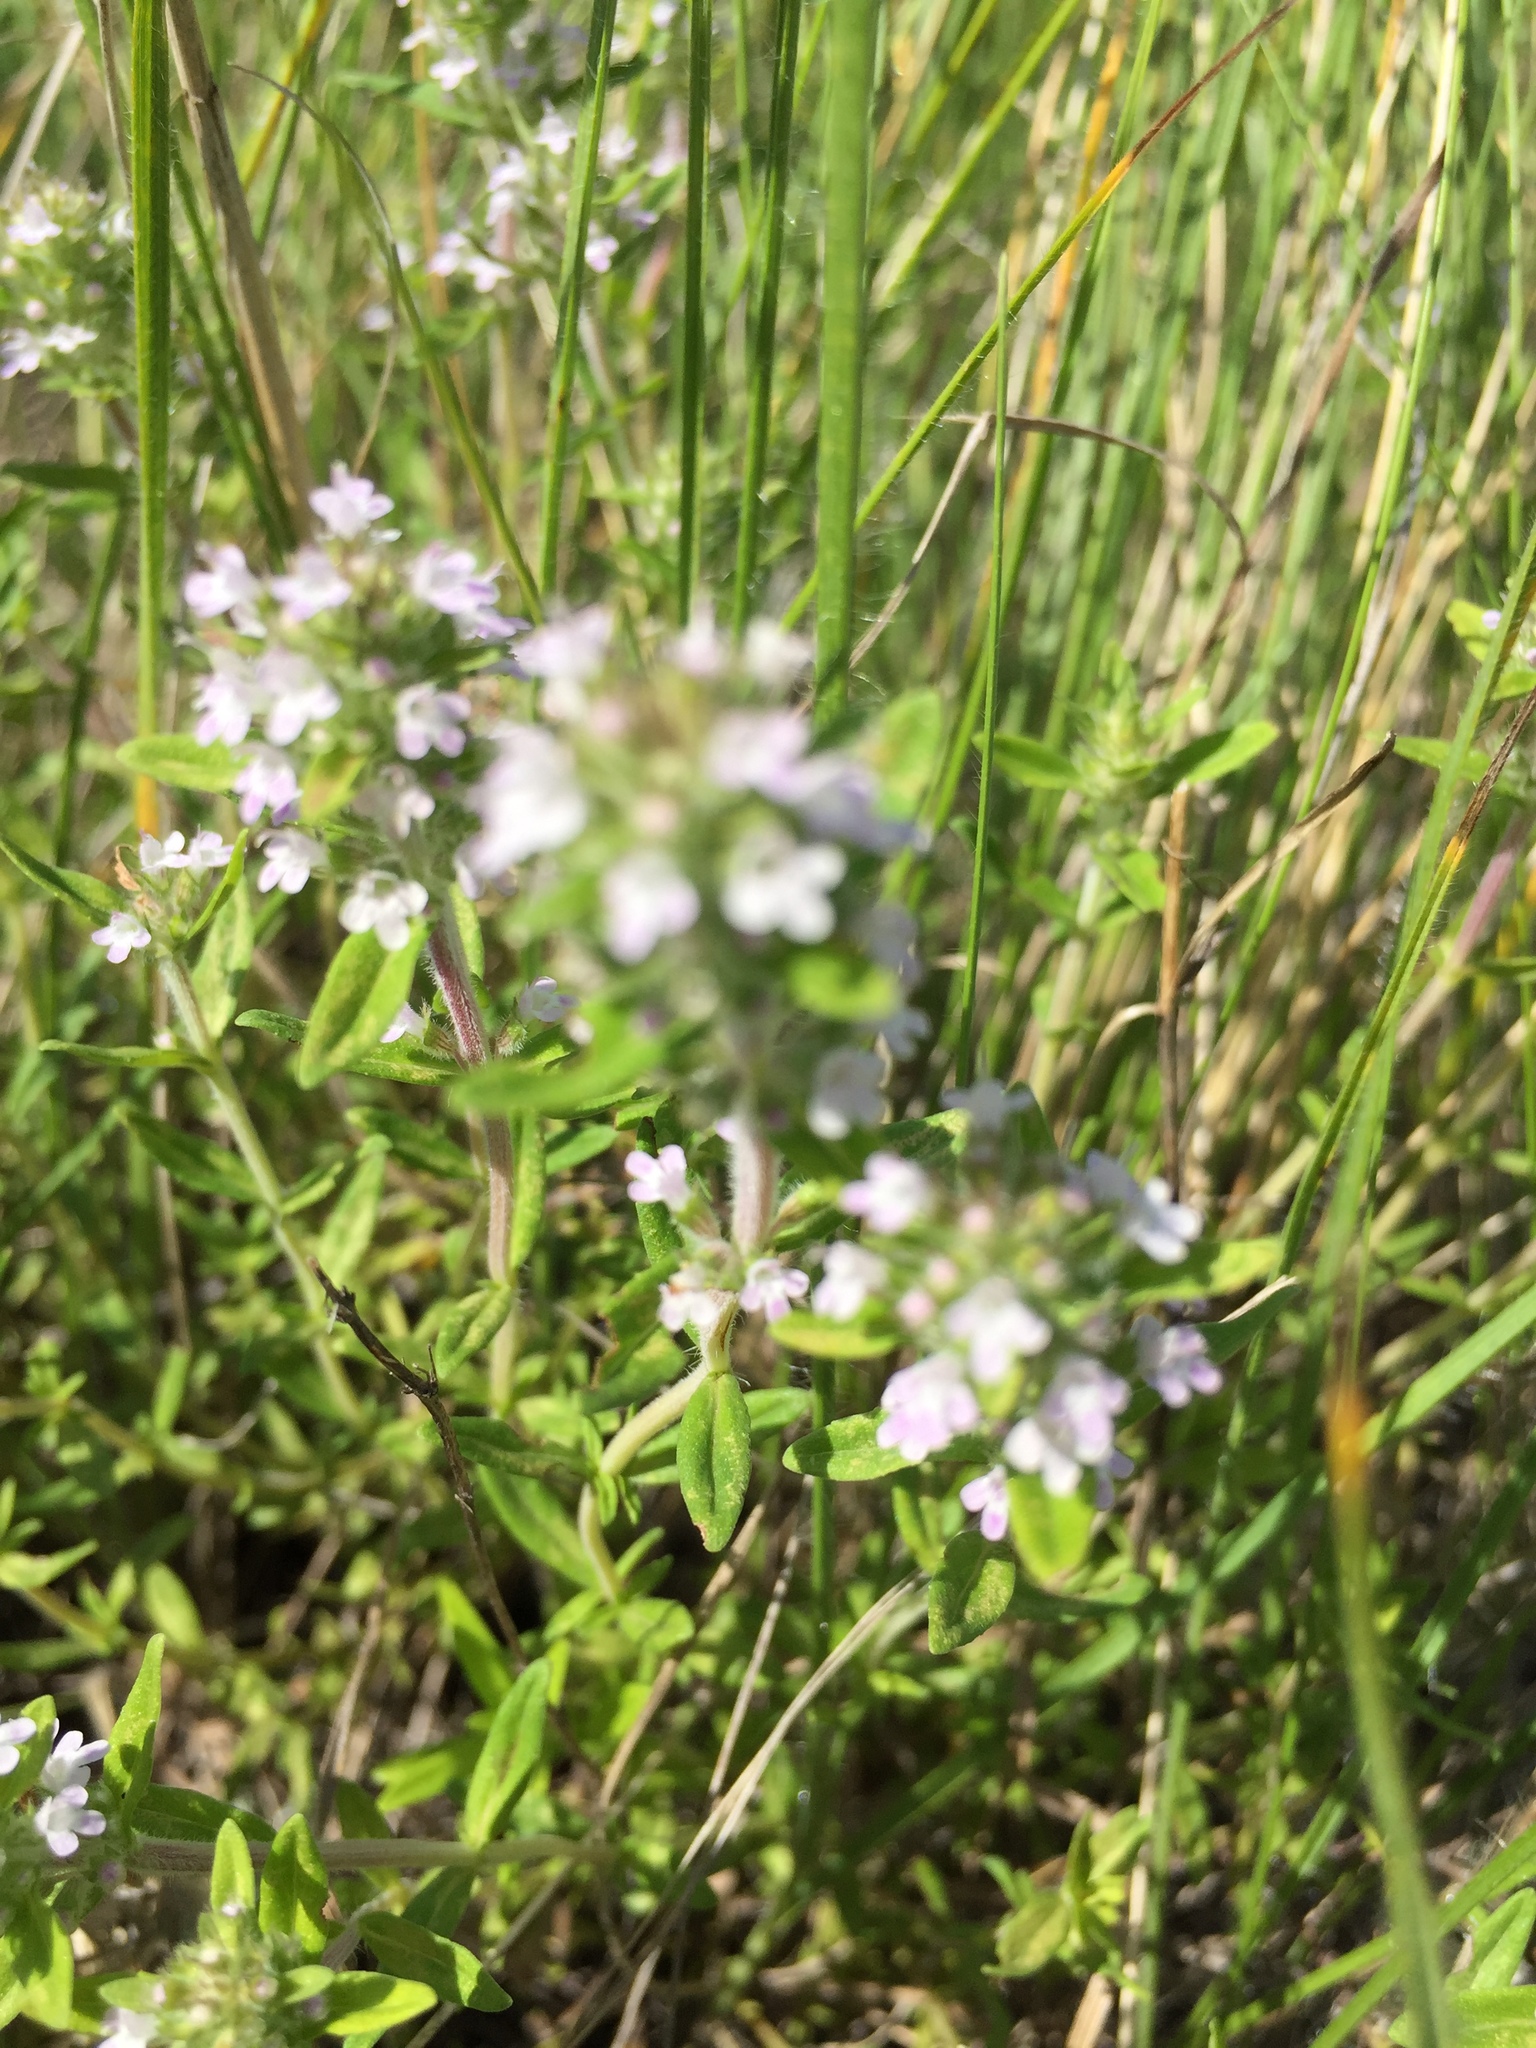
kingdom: Plantae
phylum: Tracheophyta
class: Magnoliopsida
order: Lamiales
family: Lamiaceae
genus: Thymus
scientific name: Thymus pannonicus
